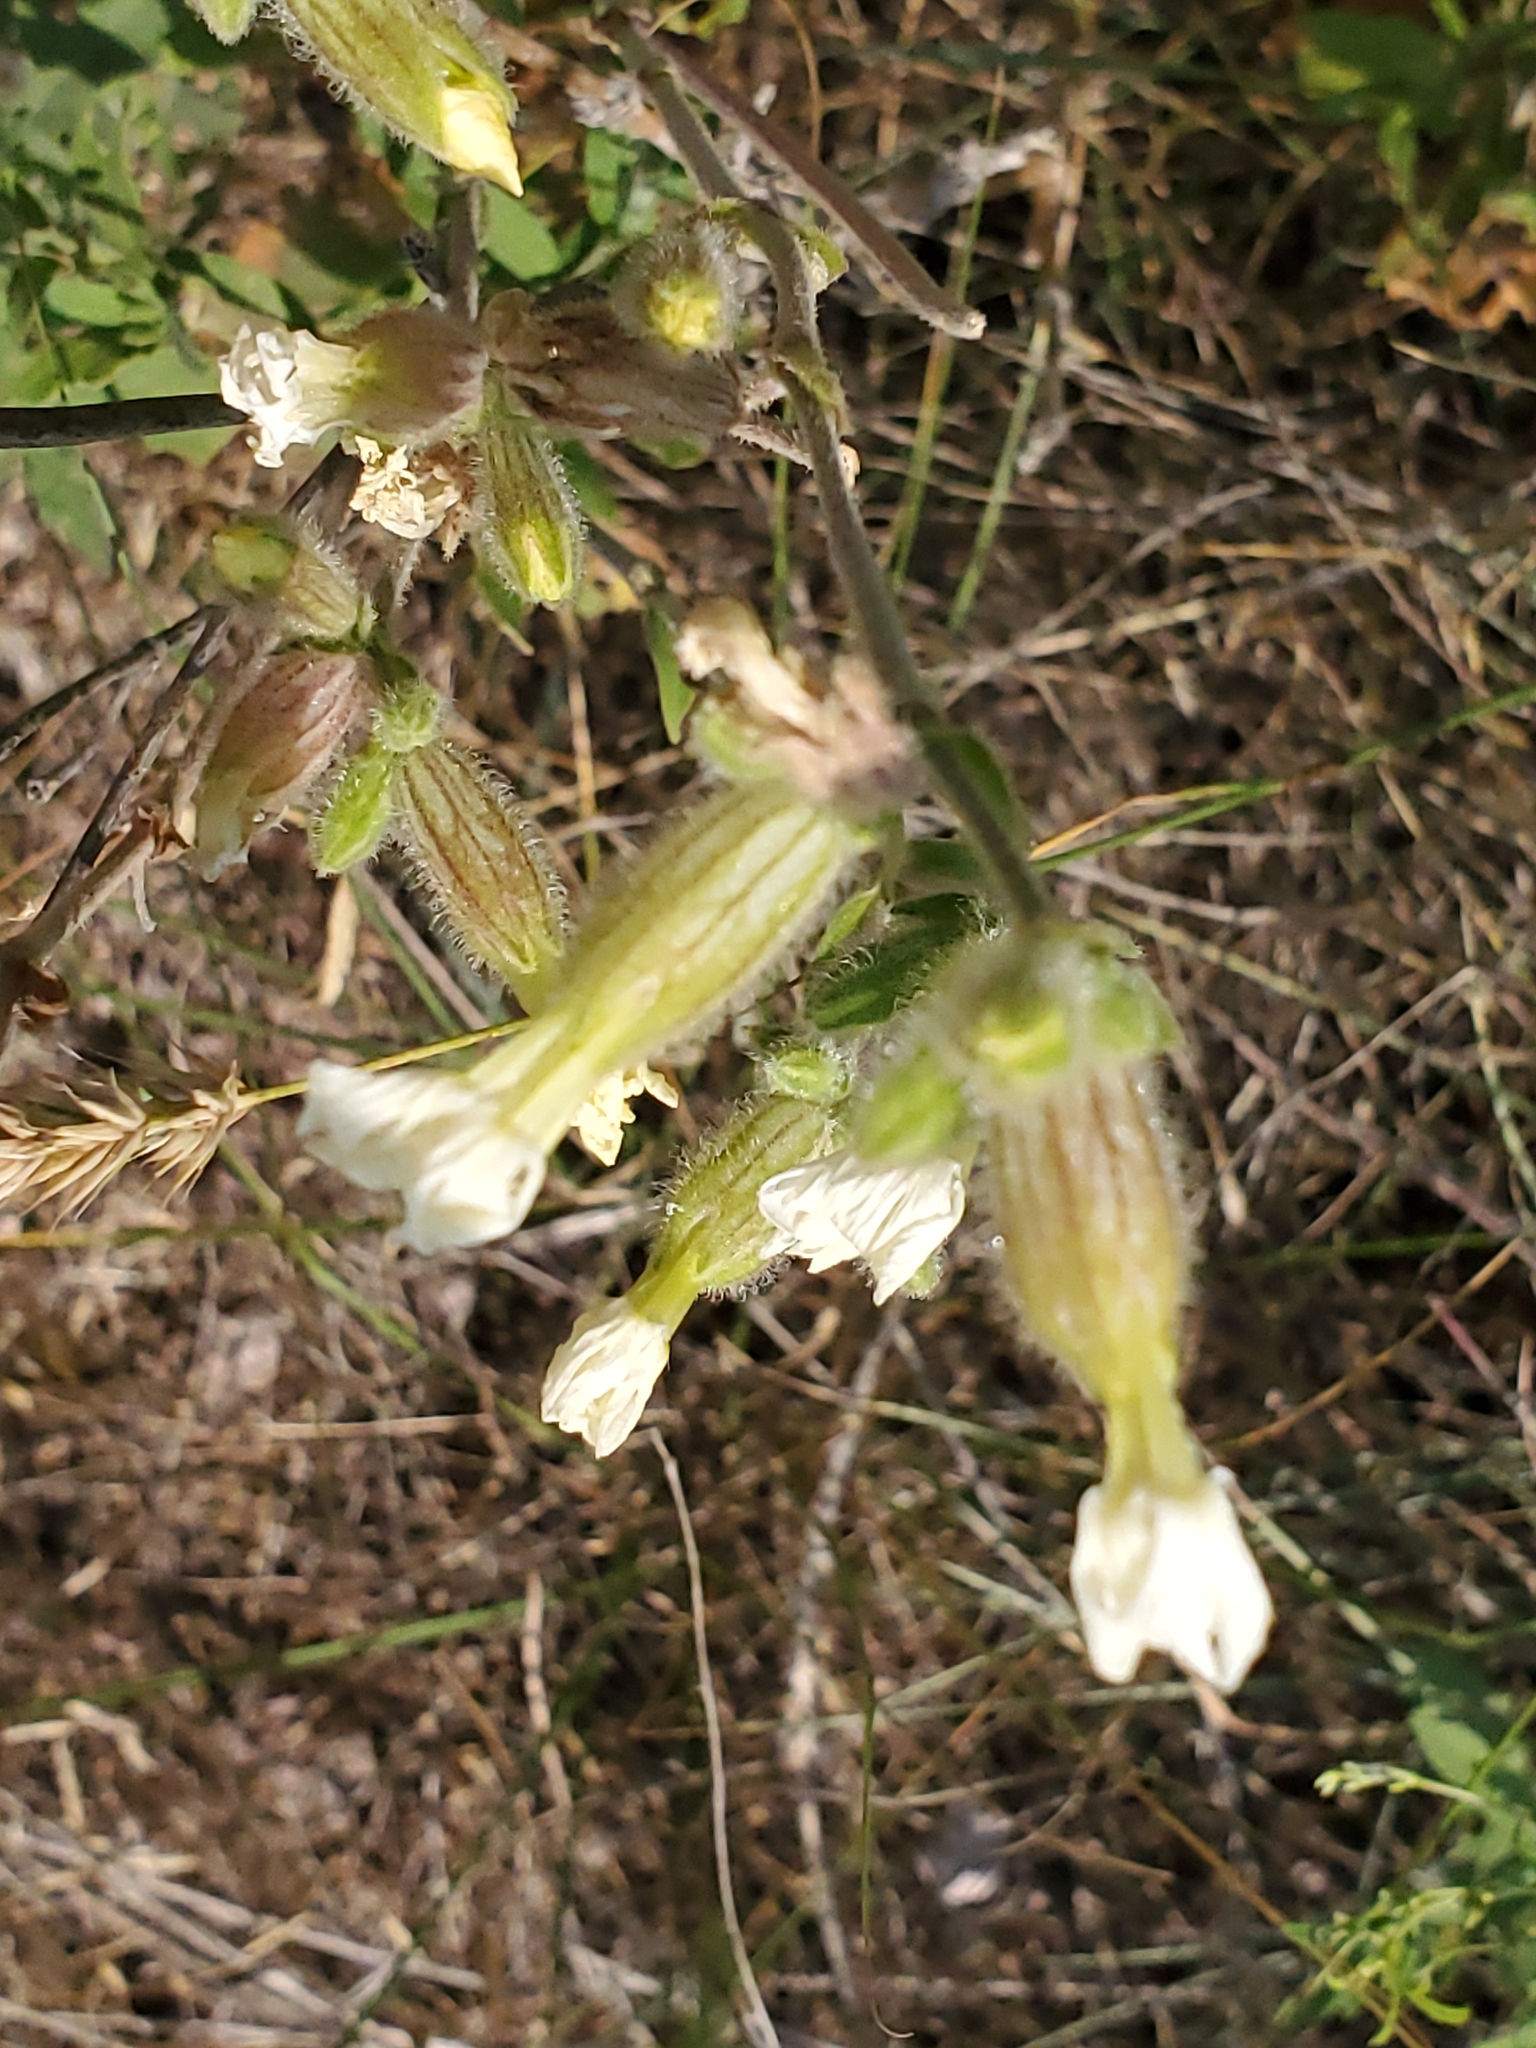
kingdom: Plantae
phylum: Tracheophyta
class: Magnoliopsida
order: Caryophyllales
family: Caryophyllaceae
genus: Silene
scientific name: Silene latifolia
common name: White campion
